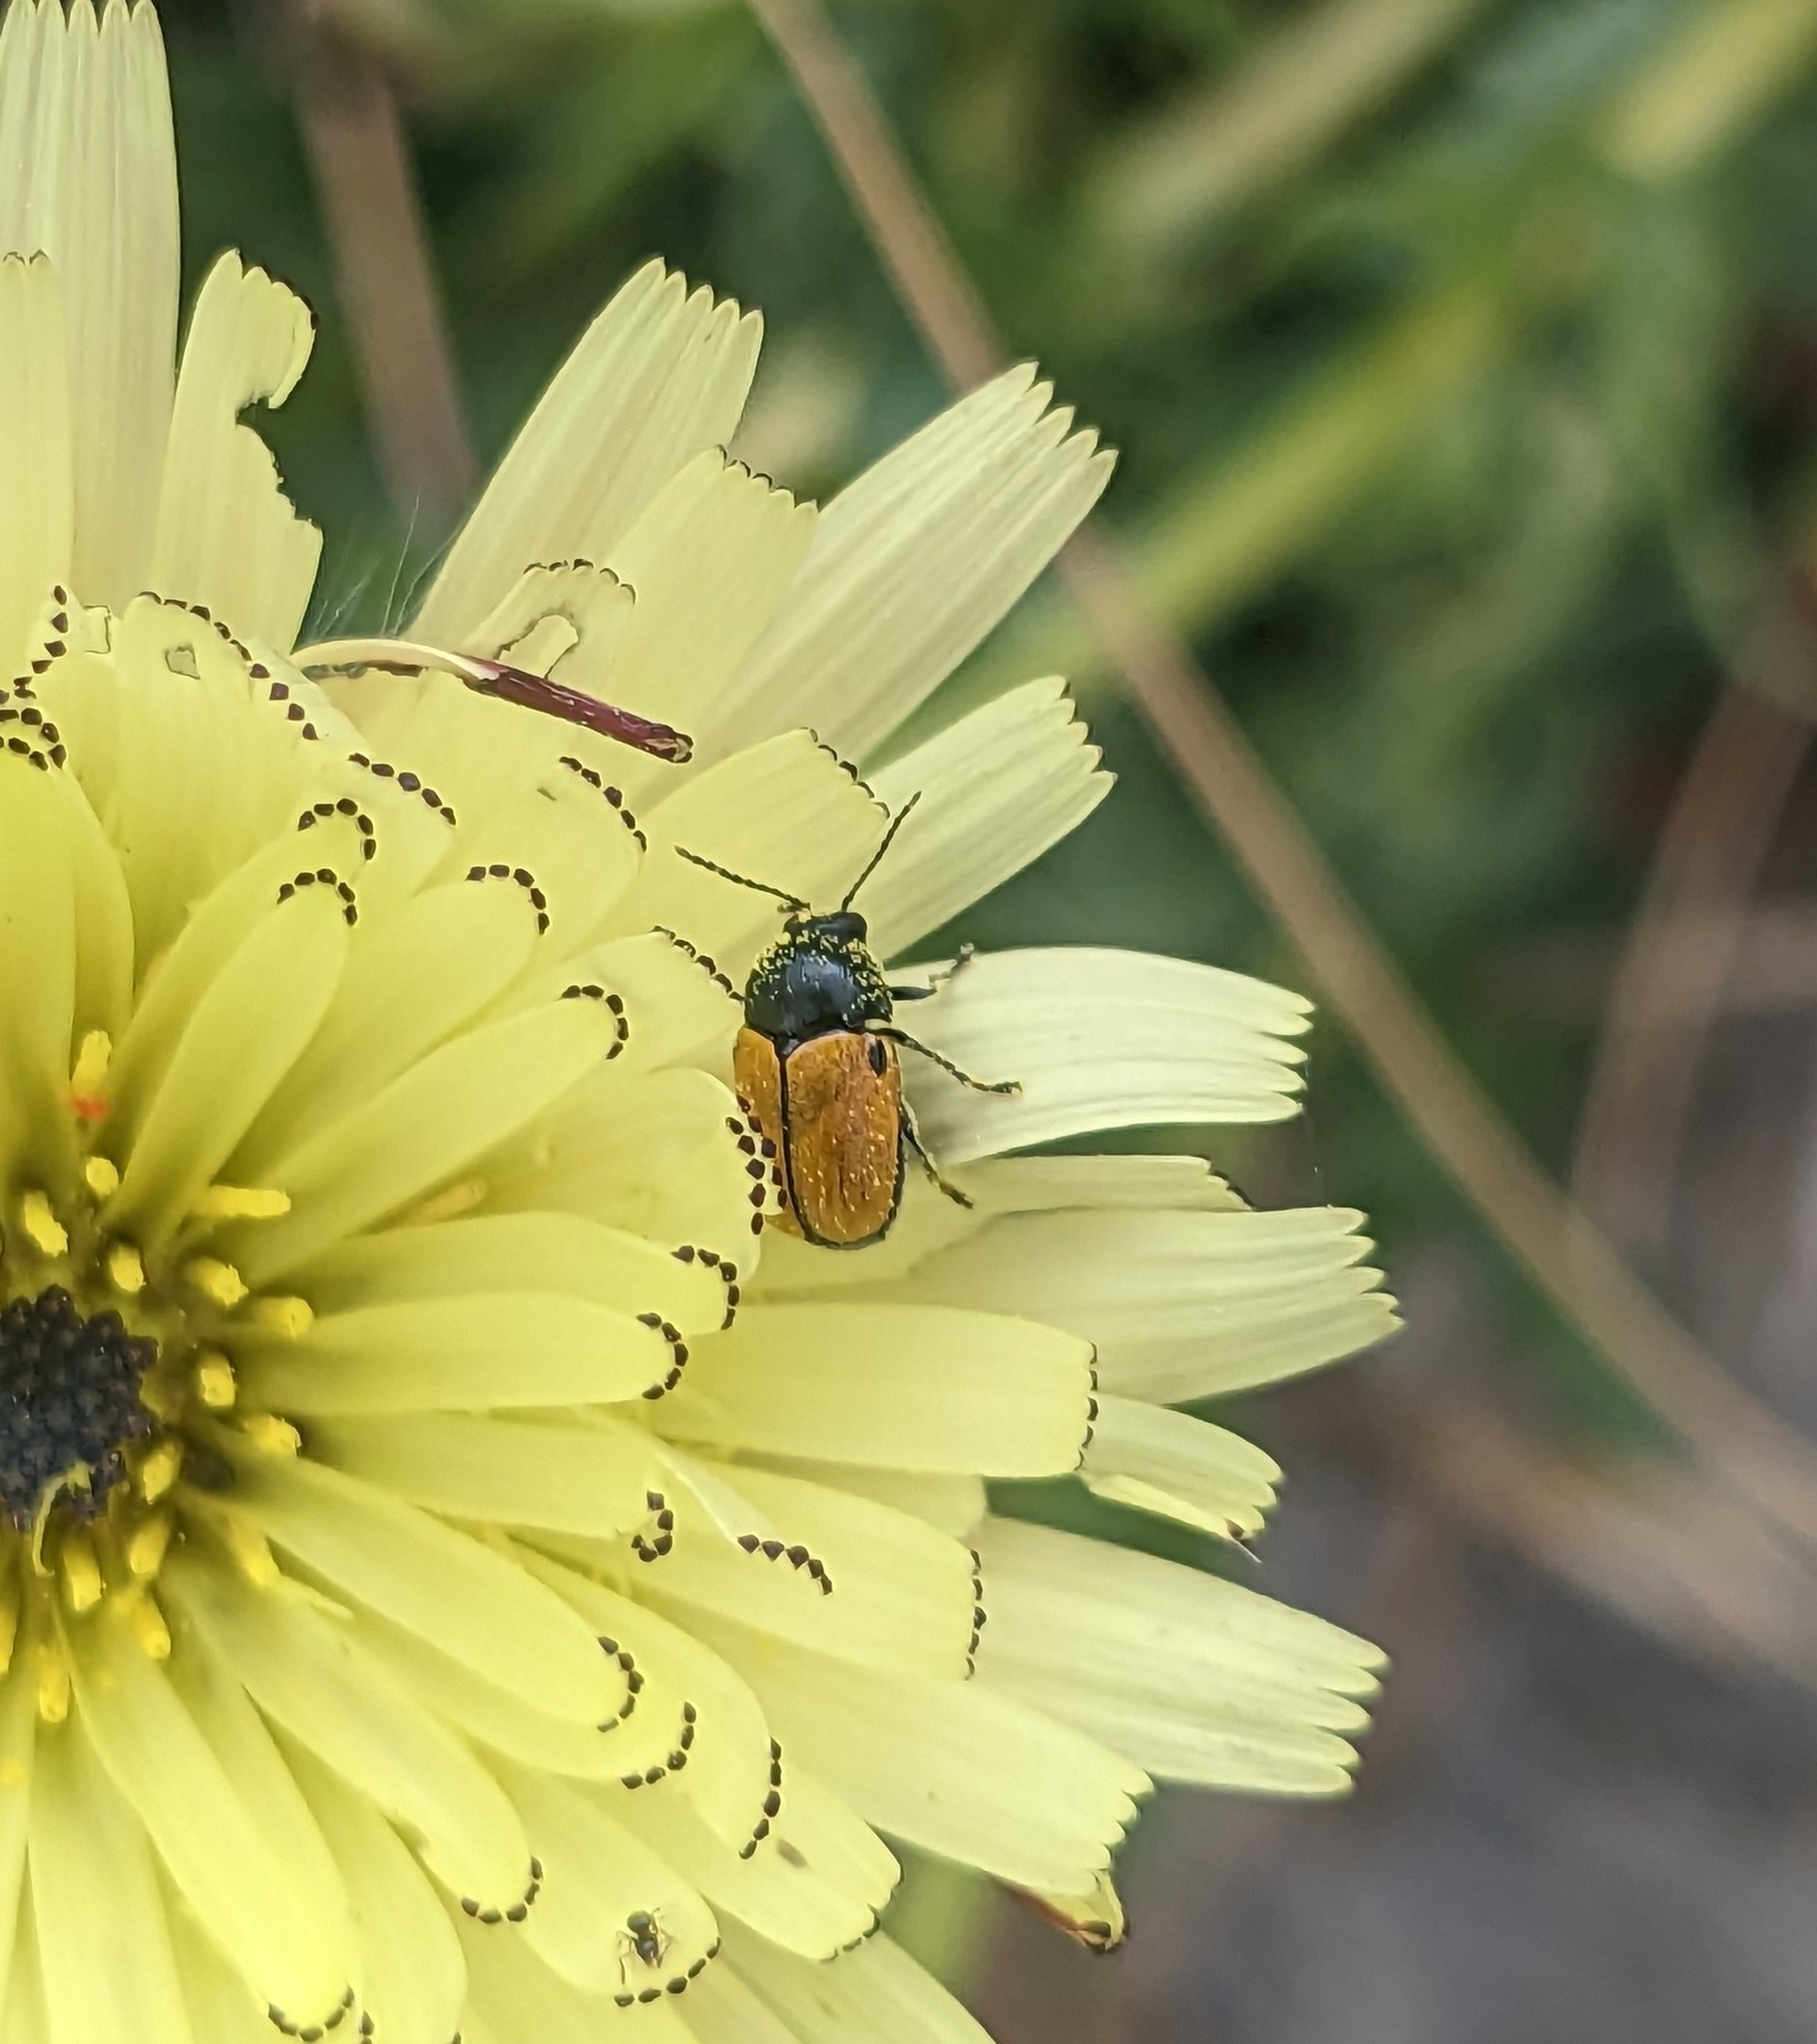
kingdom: Animalia
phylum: Arthropoda
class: Insecta
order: Coleoptera
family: Chrysomelidae
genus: Cryptocephalus
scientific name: Cryptocephalus rugicollis
